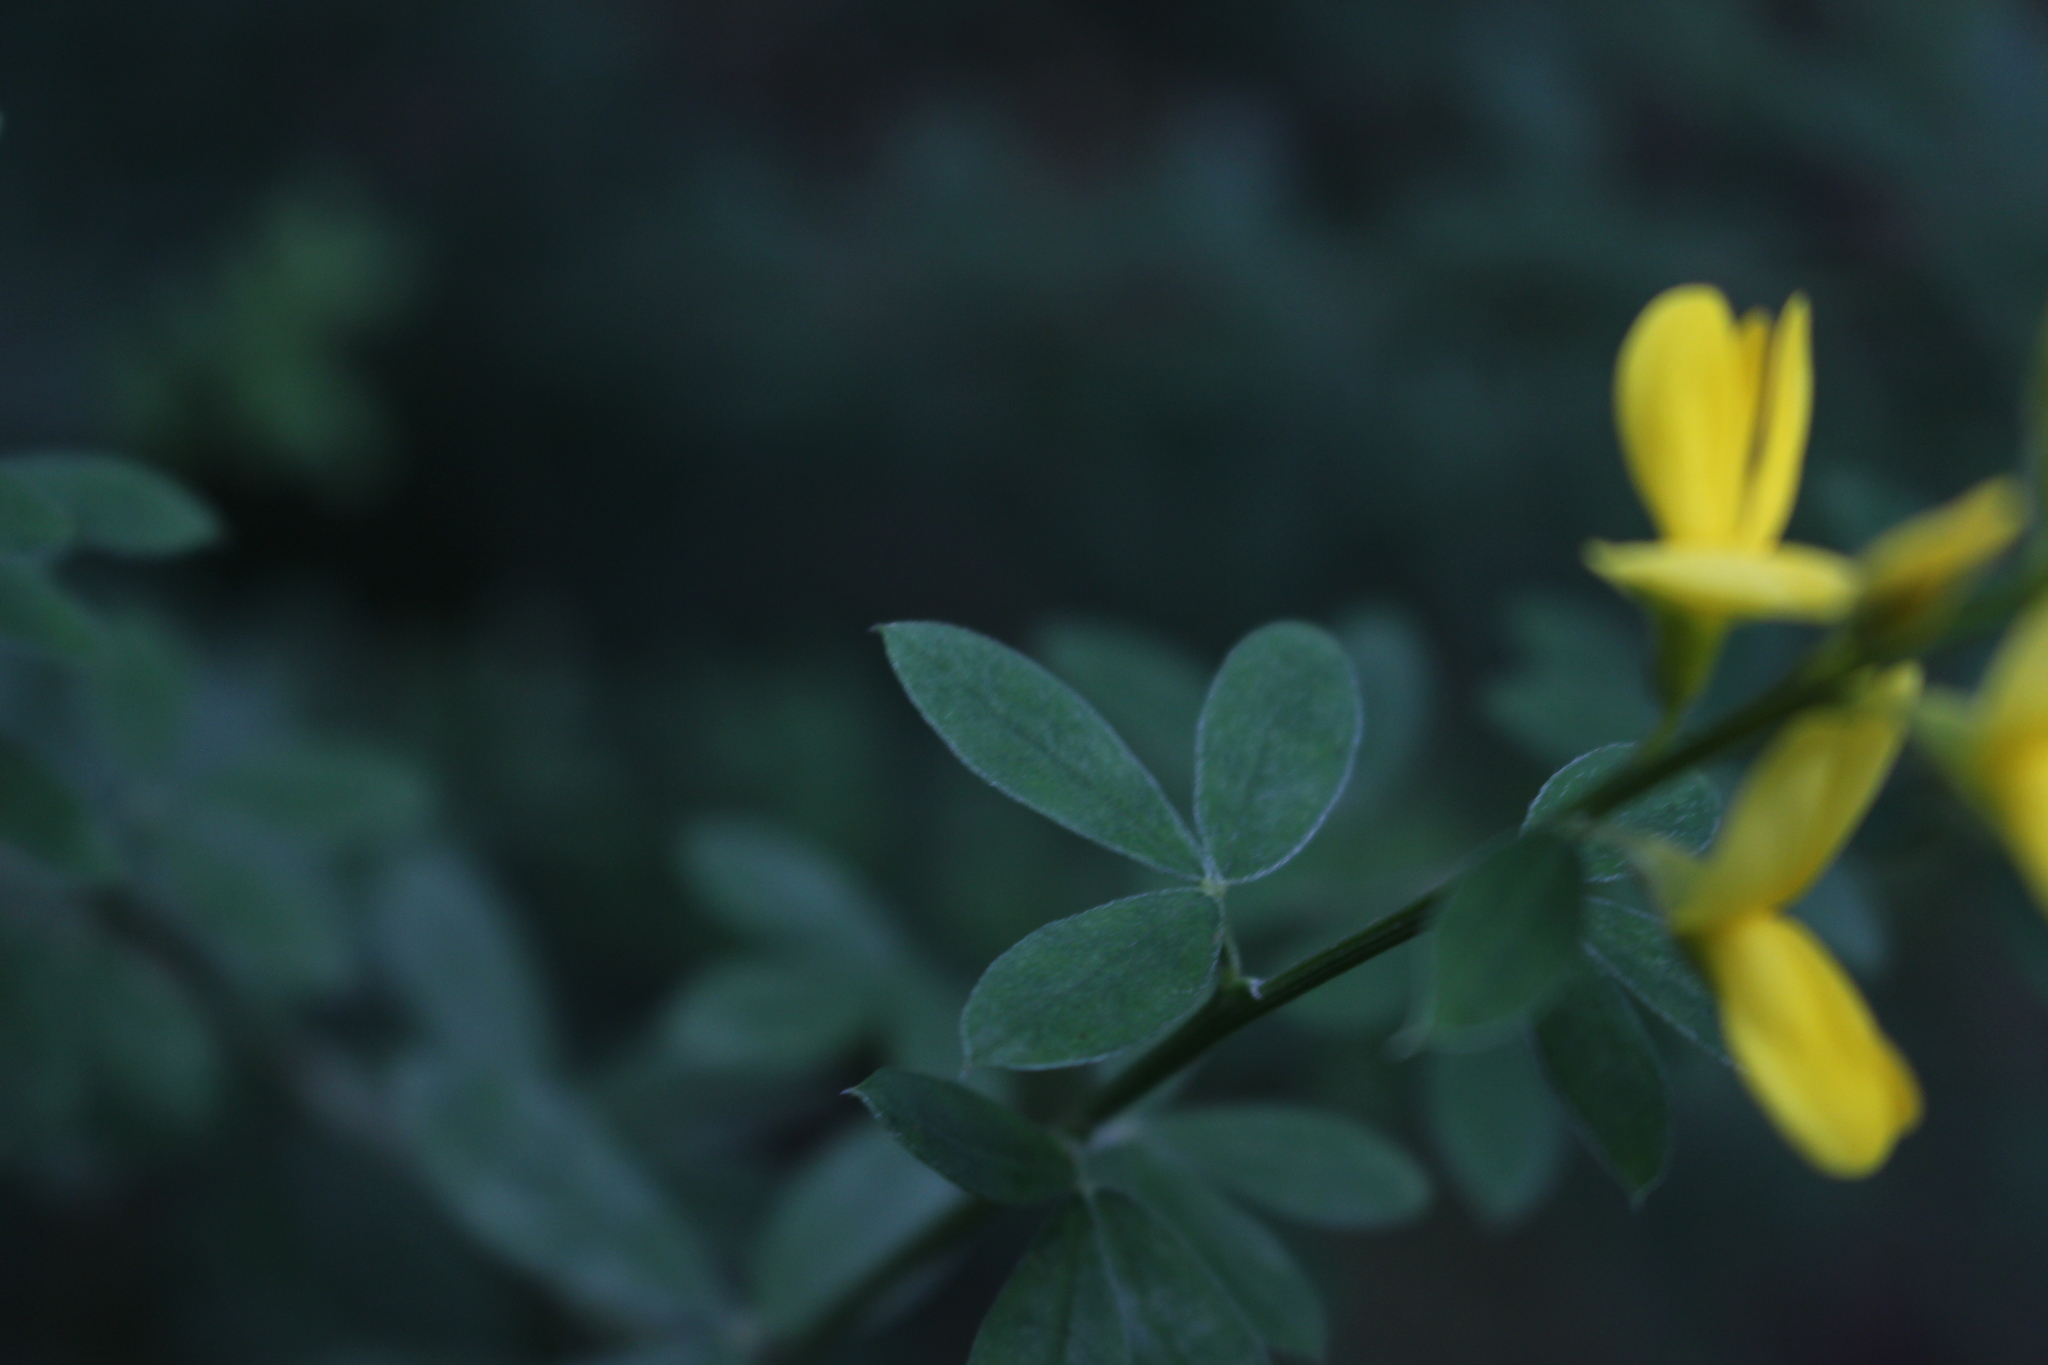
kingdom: Plantae
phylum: Tracheophyta
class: Magnoliopsida
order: Fabales
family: Fabaceae
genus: Genista
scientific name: Genista monspessulana
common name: Montpellier broom
